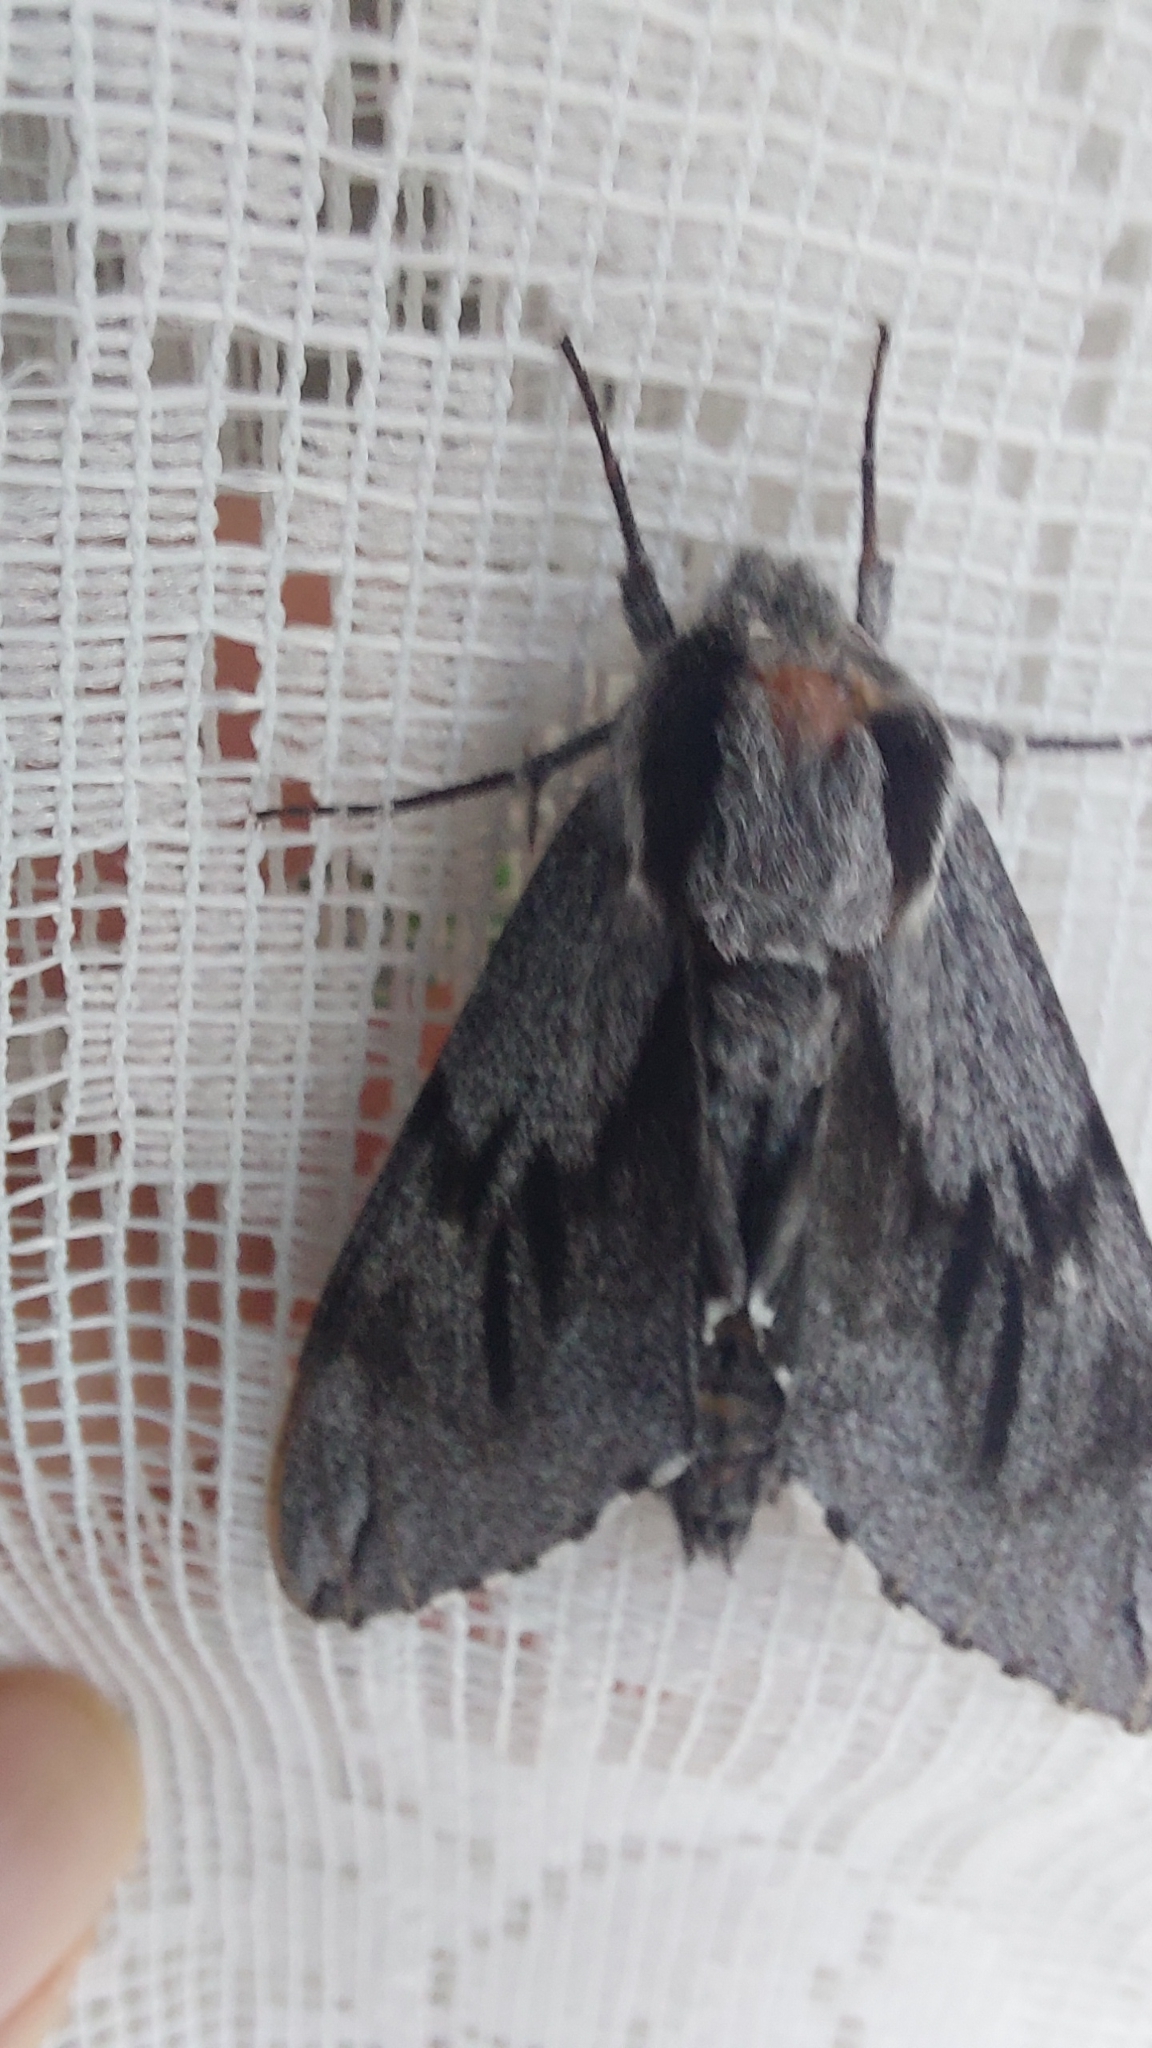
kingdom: Animalia
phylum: Arthropoda
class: Insecta
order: Lepidoptera
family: Sphingidae
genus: Sphinx
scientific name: Sphinx pinastri
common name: Pine hawk-moth
